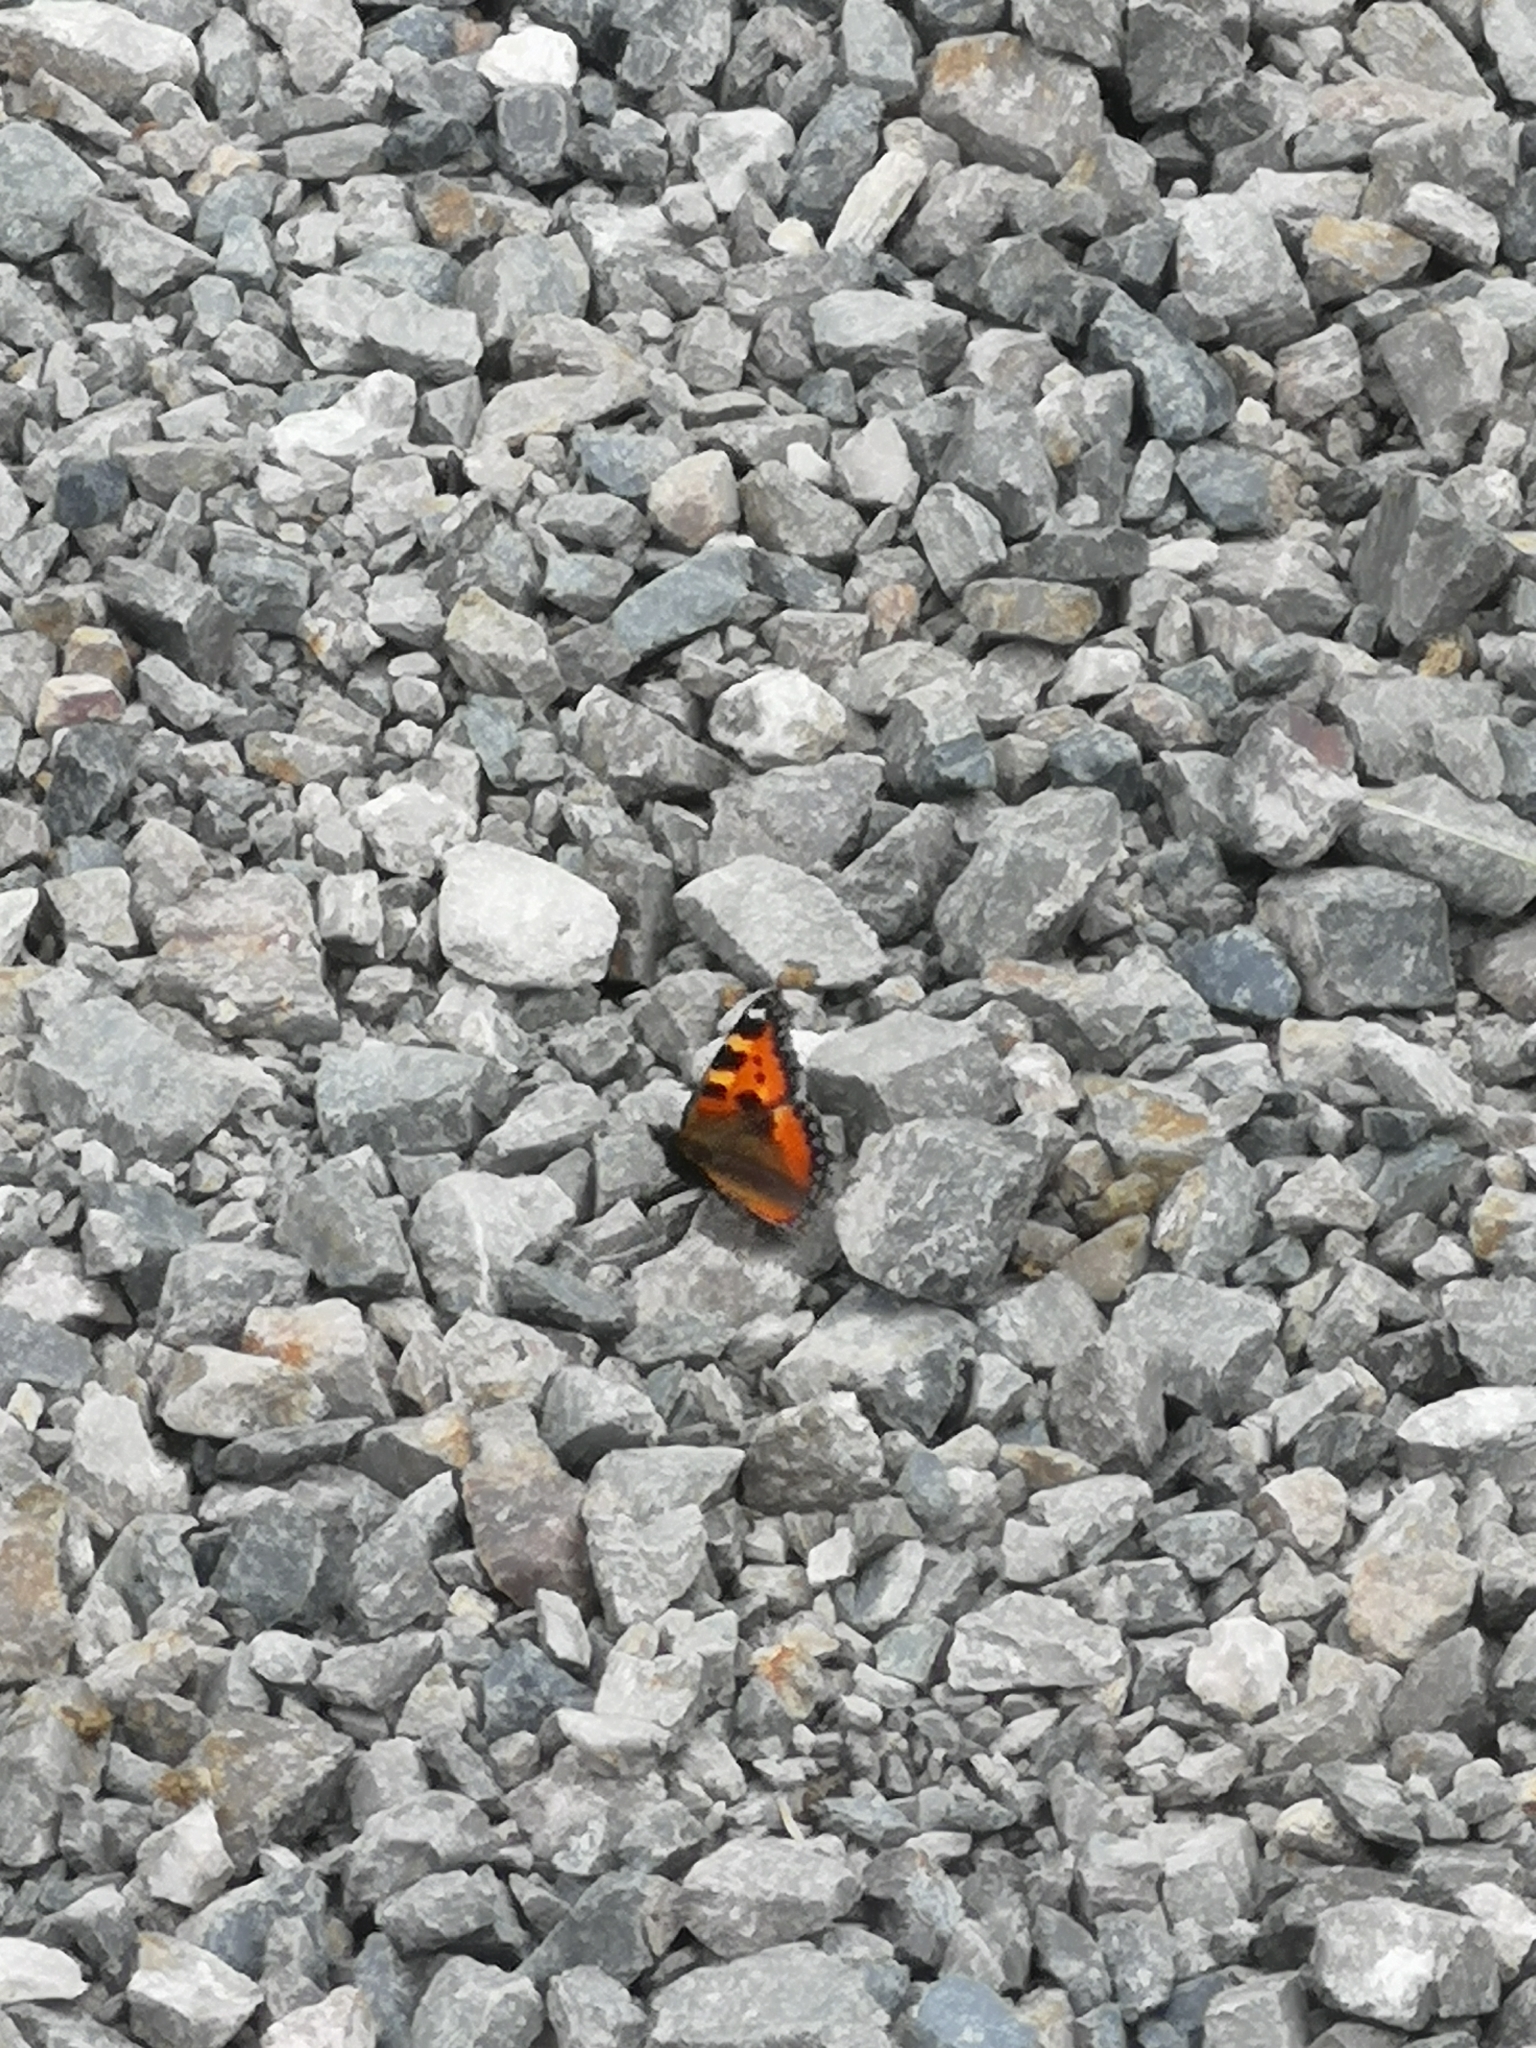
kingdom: Animalia
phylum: Arthropoda
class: Insecta
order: Lepidoptera
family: Nymphalidae
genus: Aglais
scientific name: Aglais urticae
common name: Small tortoiseshell
